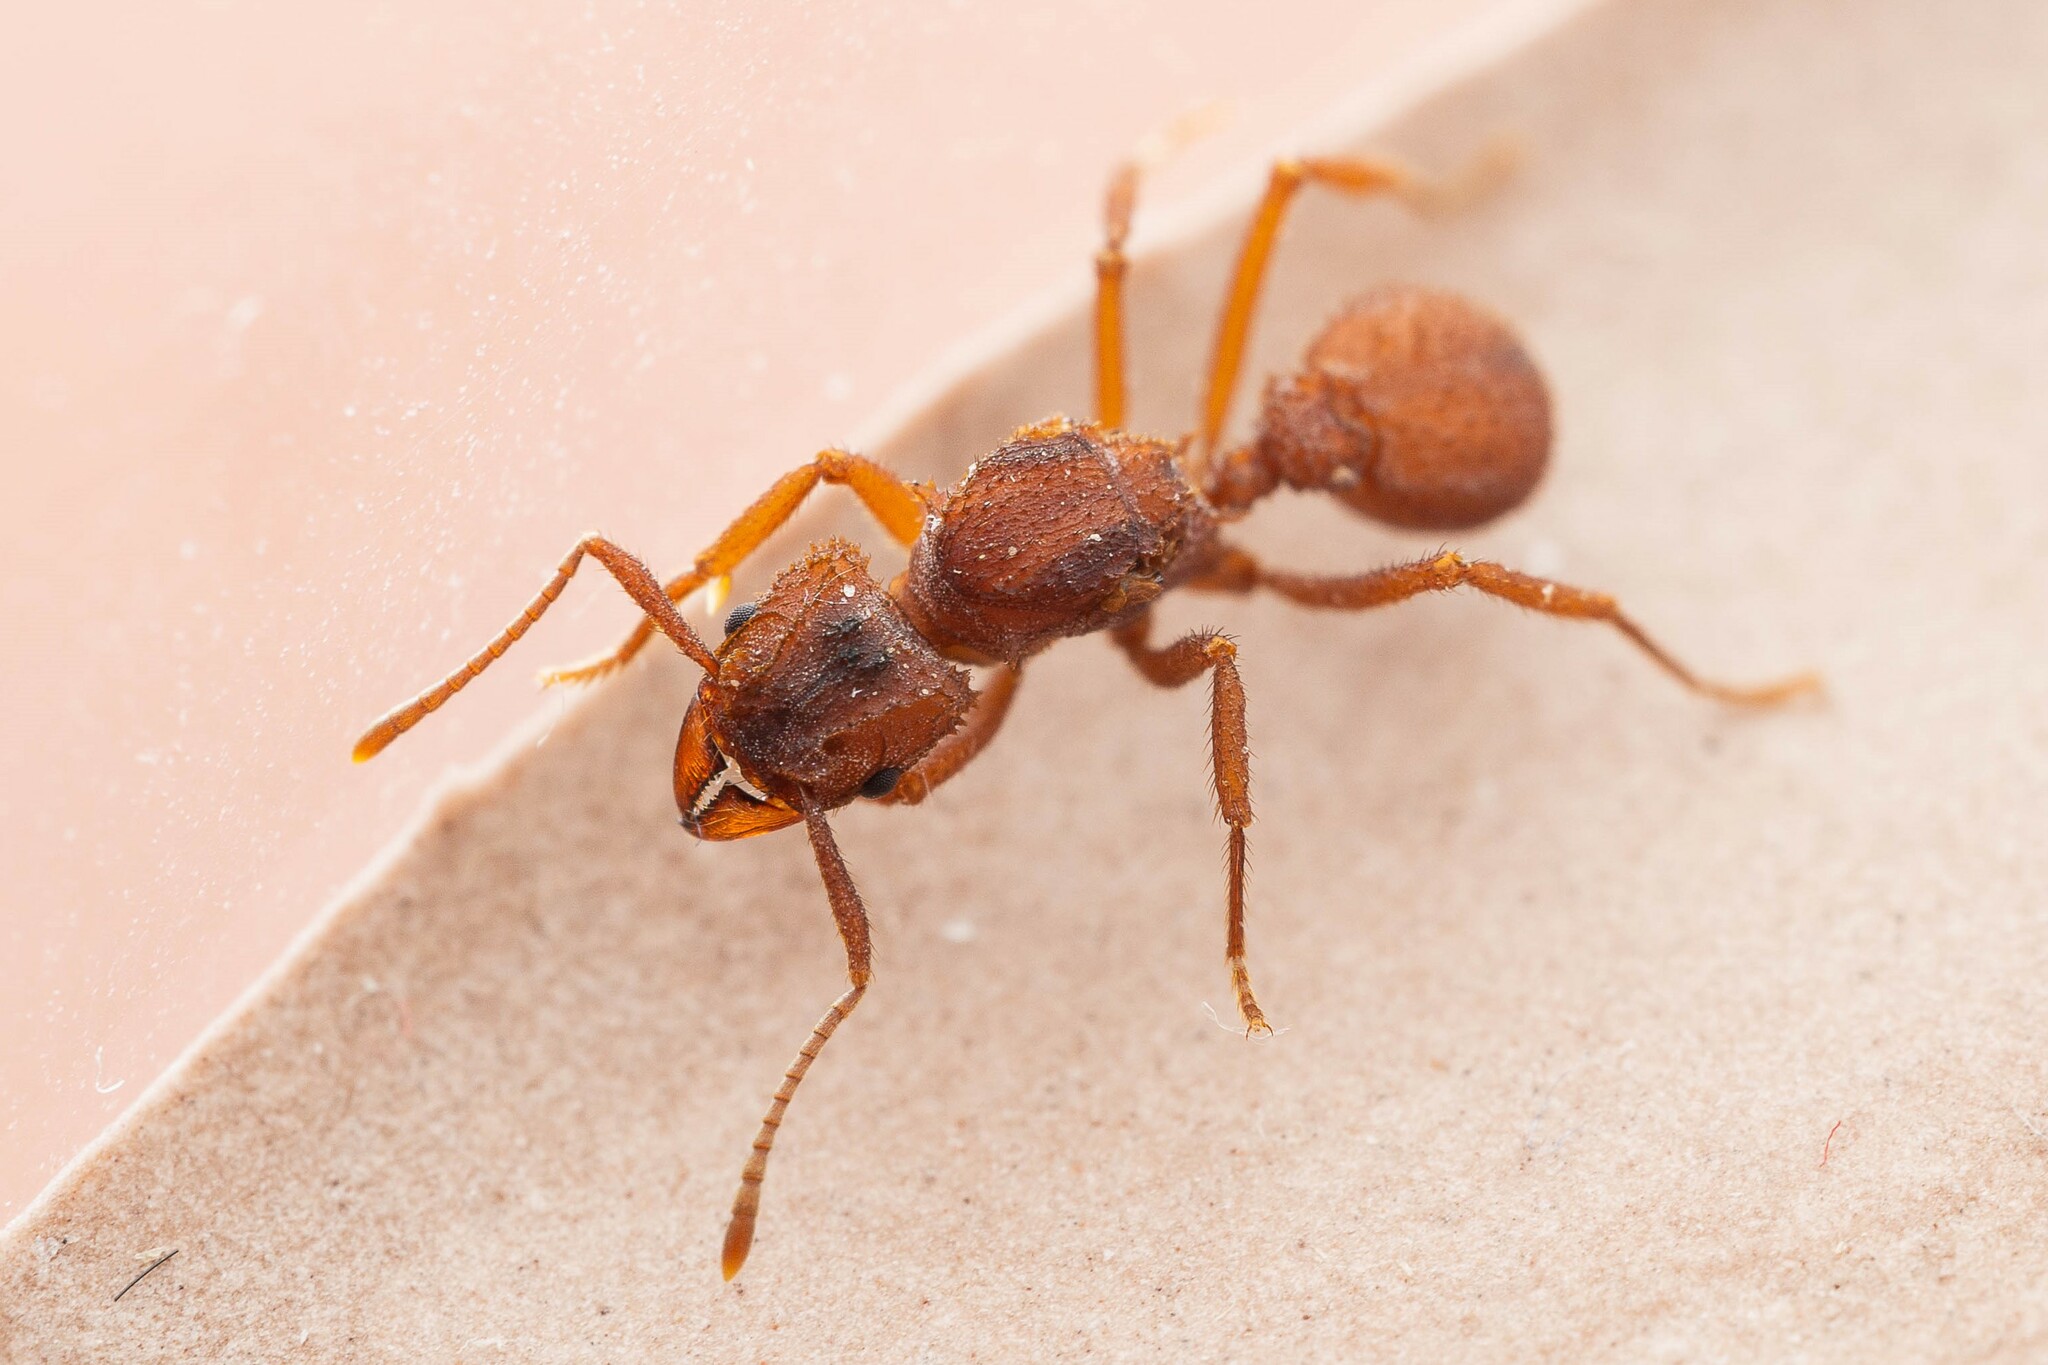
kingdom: Animalia
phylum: Arthropoda
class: Insecta
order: Hymenoptera
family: Formicidae
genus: Trachymyrmex
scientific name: Trachymyrmex arizonensis
